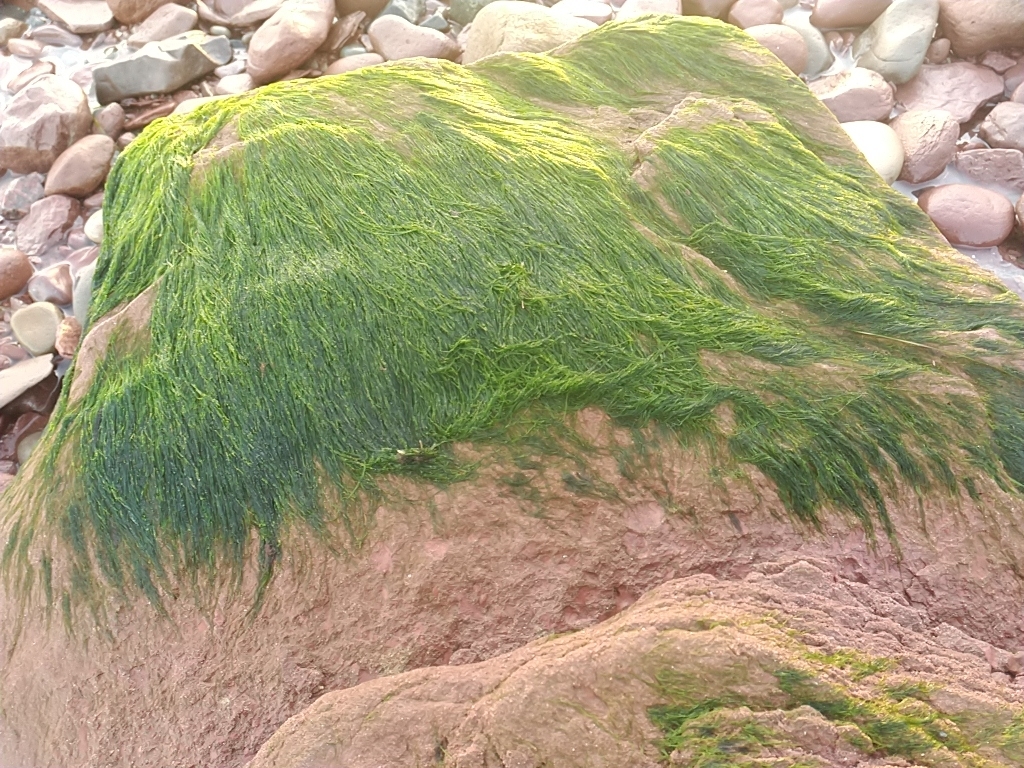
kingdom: Plantae
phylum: Chlorophyta
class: Ulvophyceae
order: Ulotrichales
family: Ulotrichaceae
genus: Acrosiphonia
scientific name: Acrosiphonia
